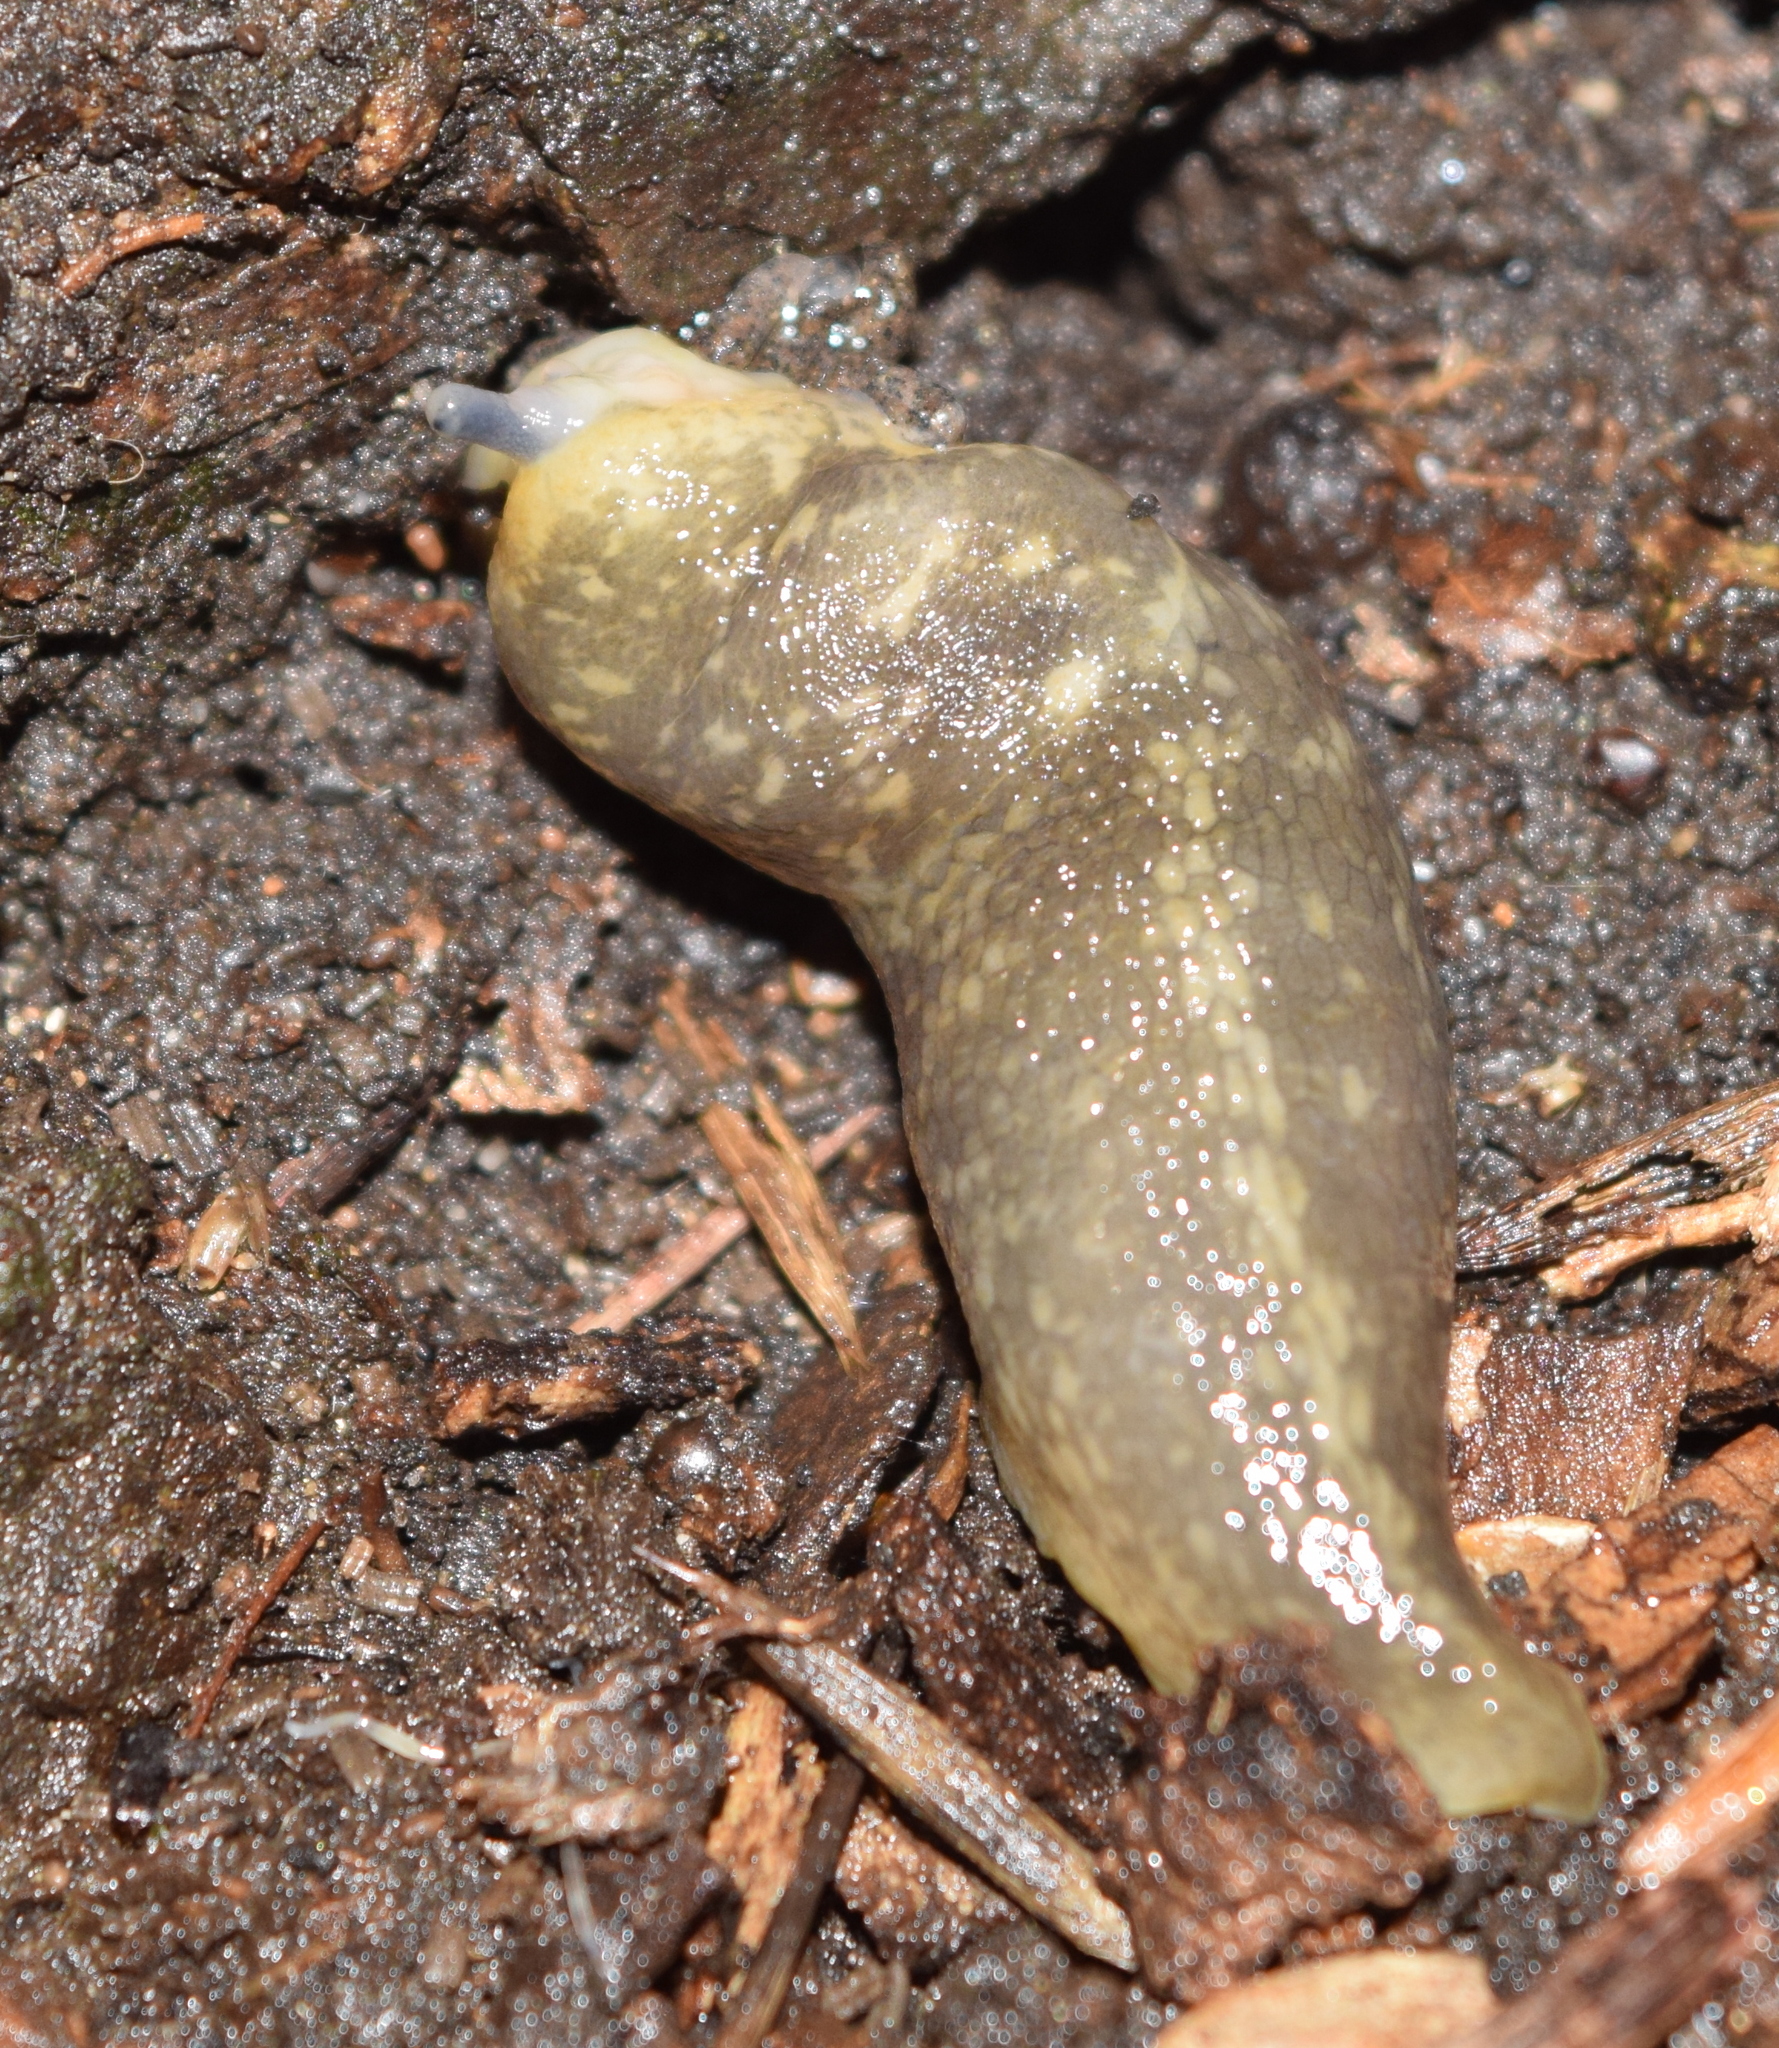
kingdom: Animalia
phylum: Mollusca
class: Gastropoda
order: Stylommatophora
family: Limacidae
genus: Limacus
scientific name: Limacus flavus
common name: Yellow gardenslug
